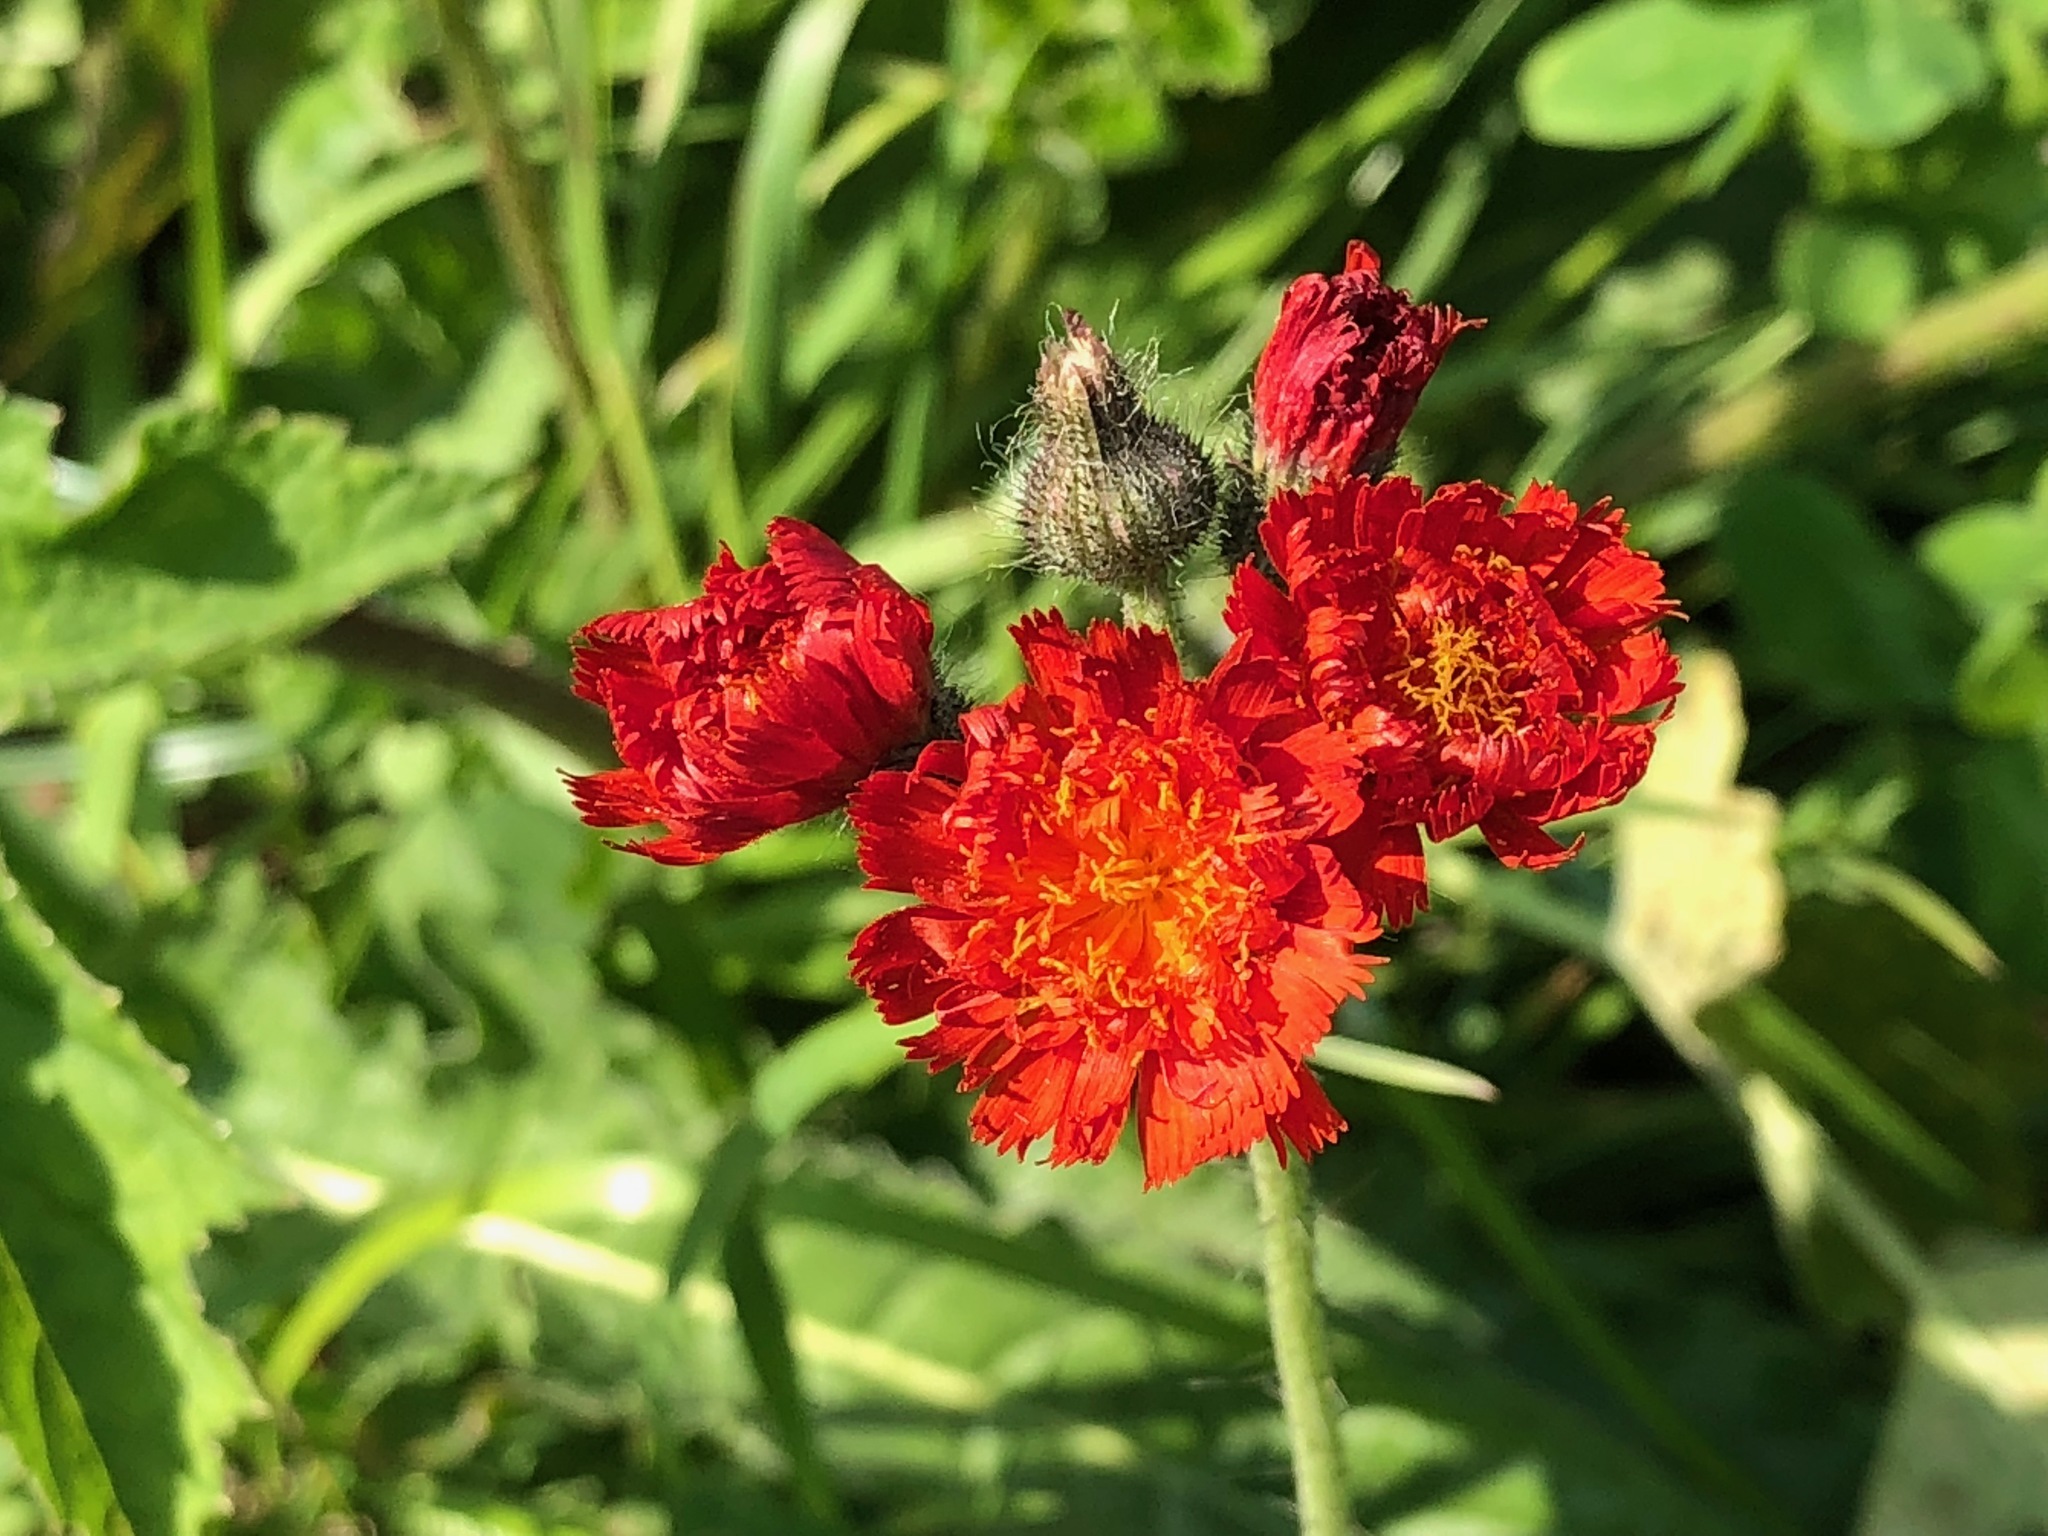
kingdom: Plantae
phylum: Tracheophyta
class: Magnoliopsida
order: Asterales
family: Asteraceae
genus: Pilosella
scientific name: Pilosella aurantiaca
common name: Fox-and-cubs
